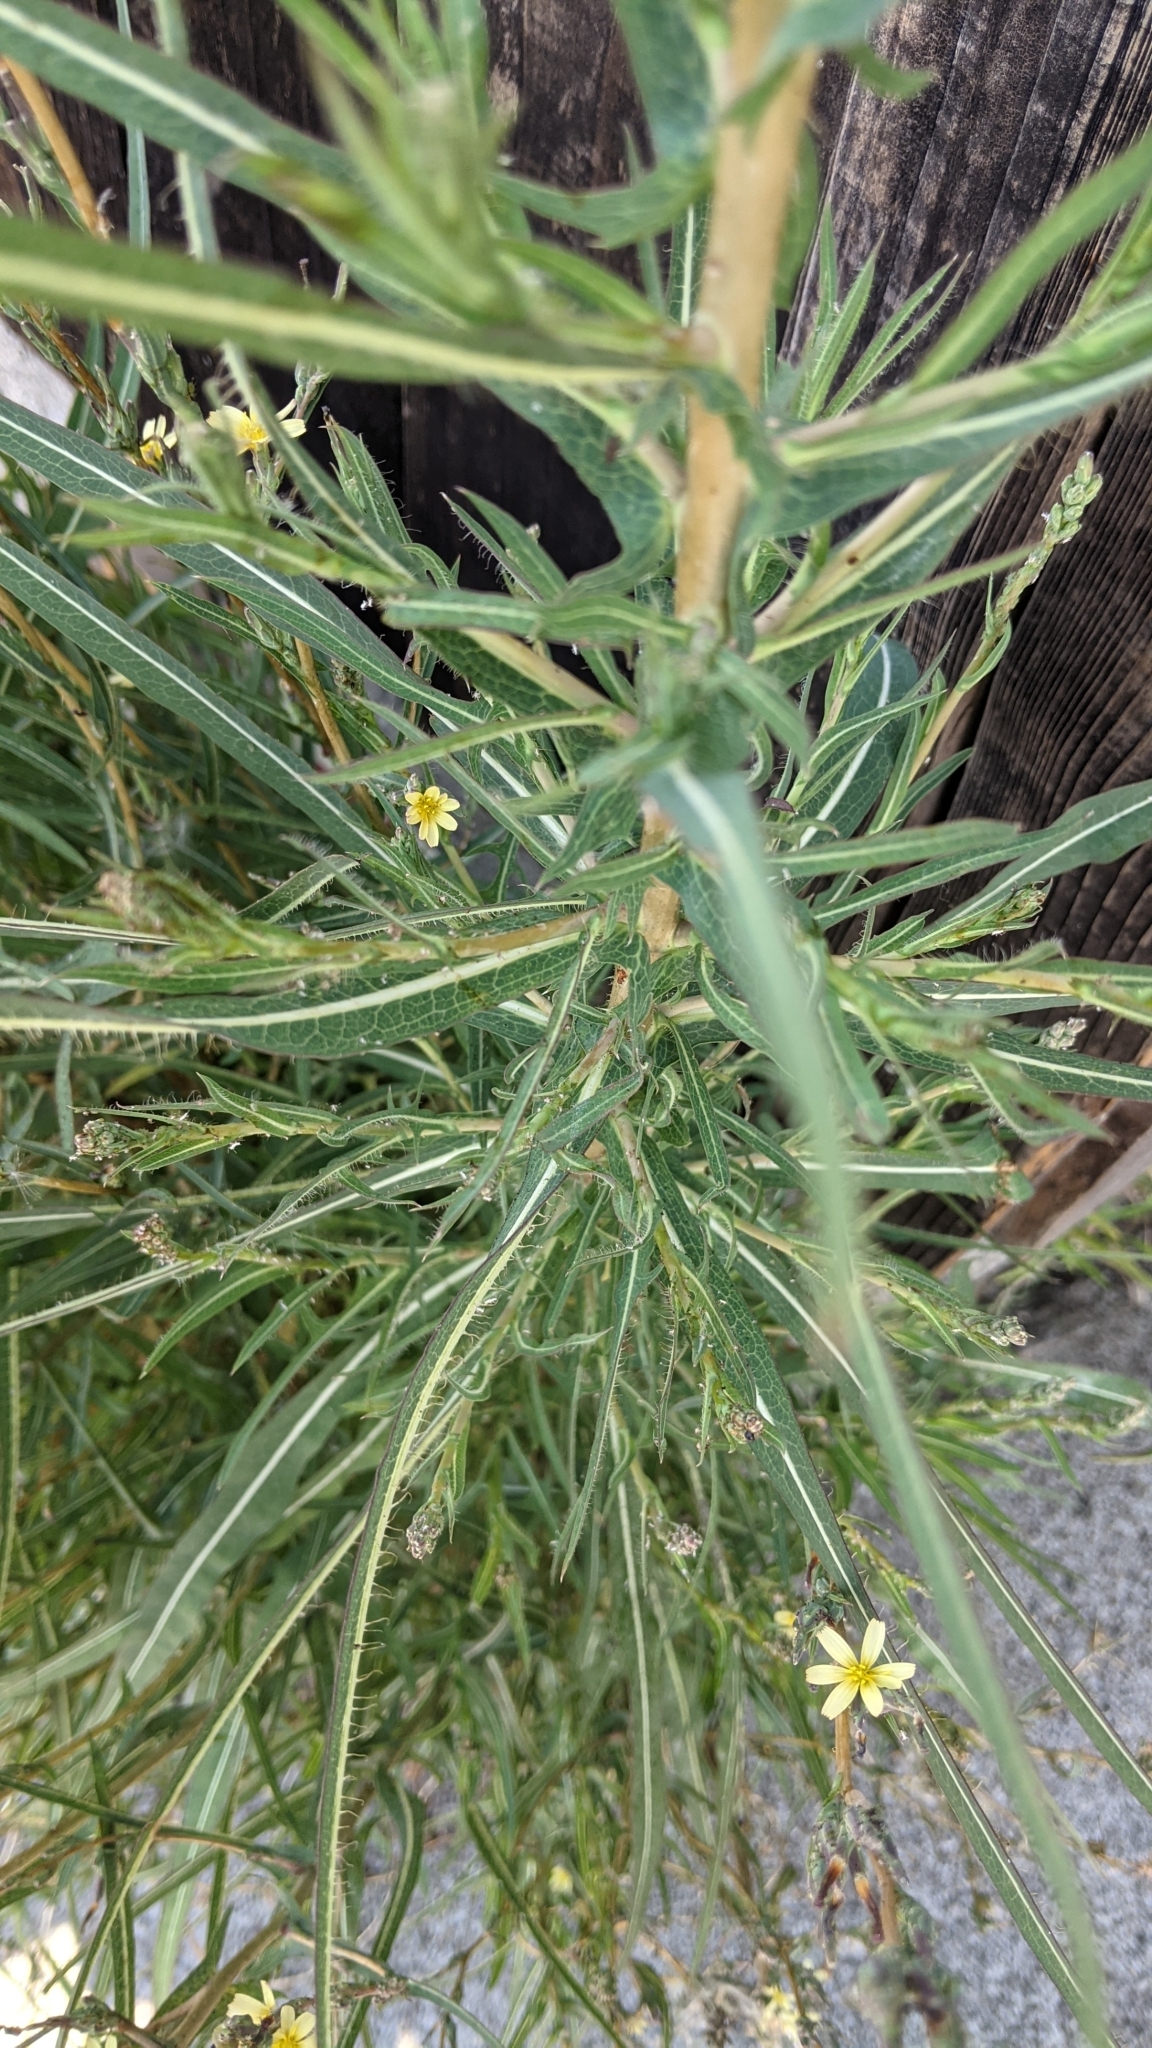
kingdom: Plantae
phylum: Tracheophyta
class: Magnoliopsida
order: Asterales
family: Asteraceae
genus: Lactuca
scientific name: Lactuca saligna
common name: Wild lettuce
